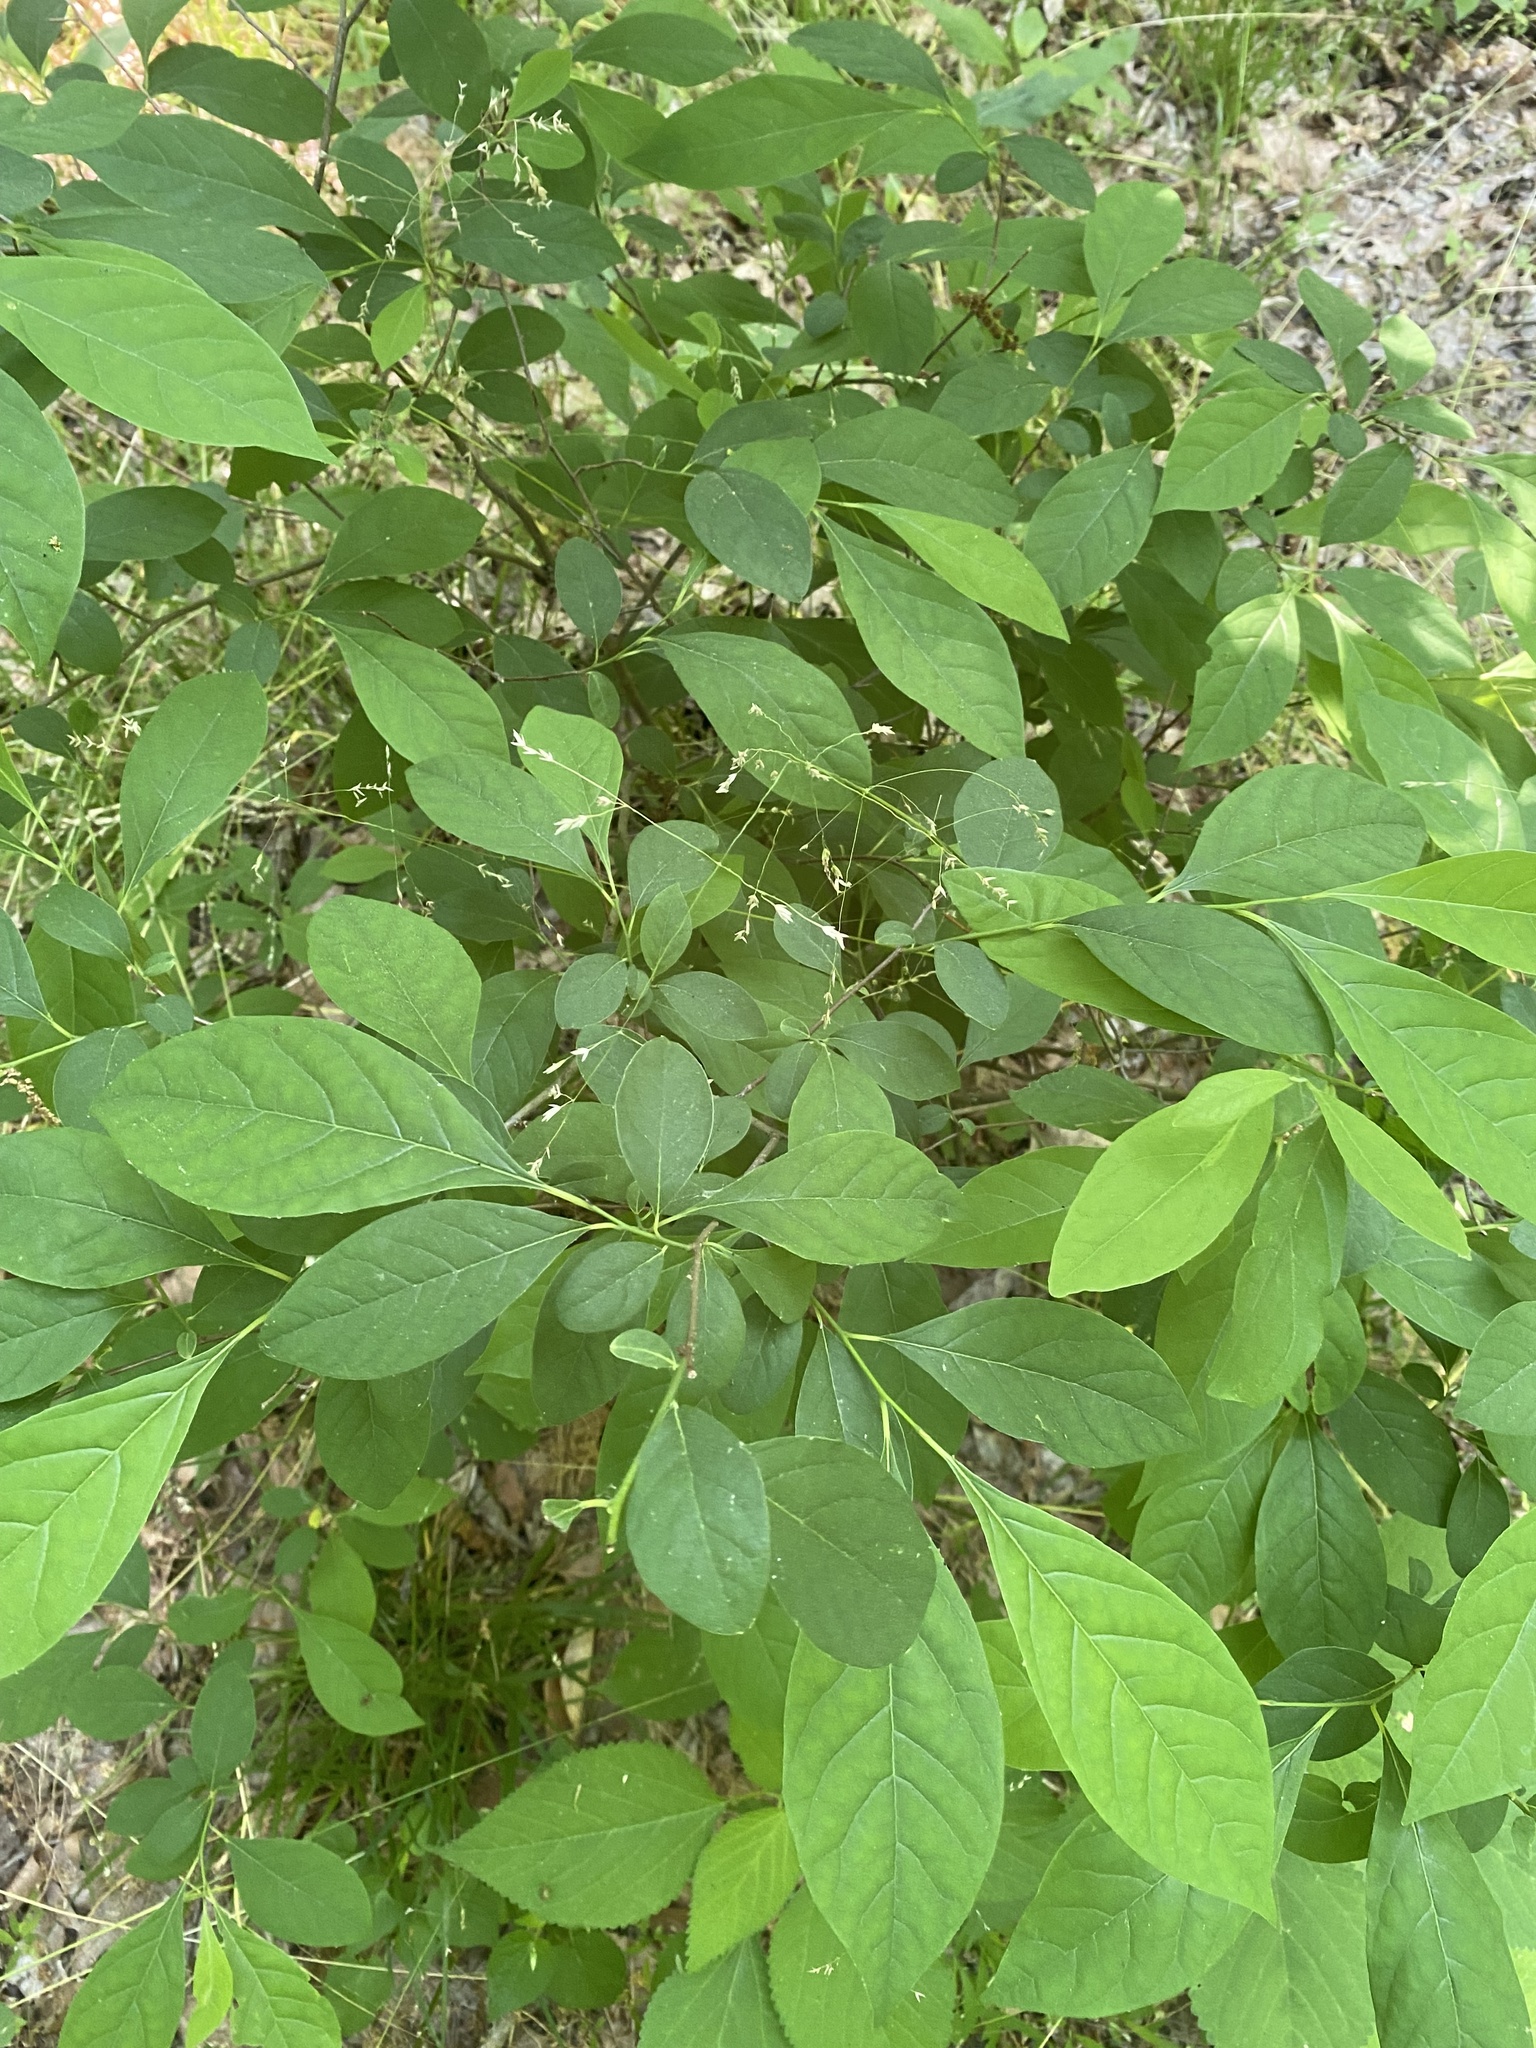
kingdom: Plantae
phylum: Tracheophyta
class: Magnoliopsida
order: Laurales
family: Lauraceae
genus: Lindera
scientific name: Lindera benzoin
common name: Spicebush
